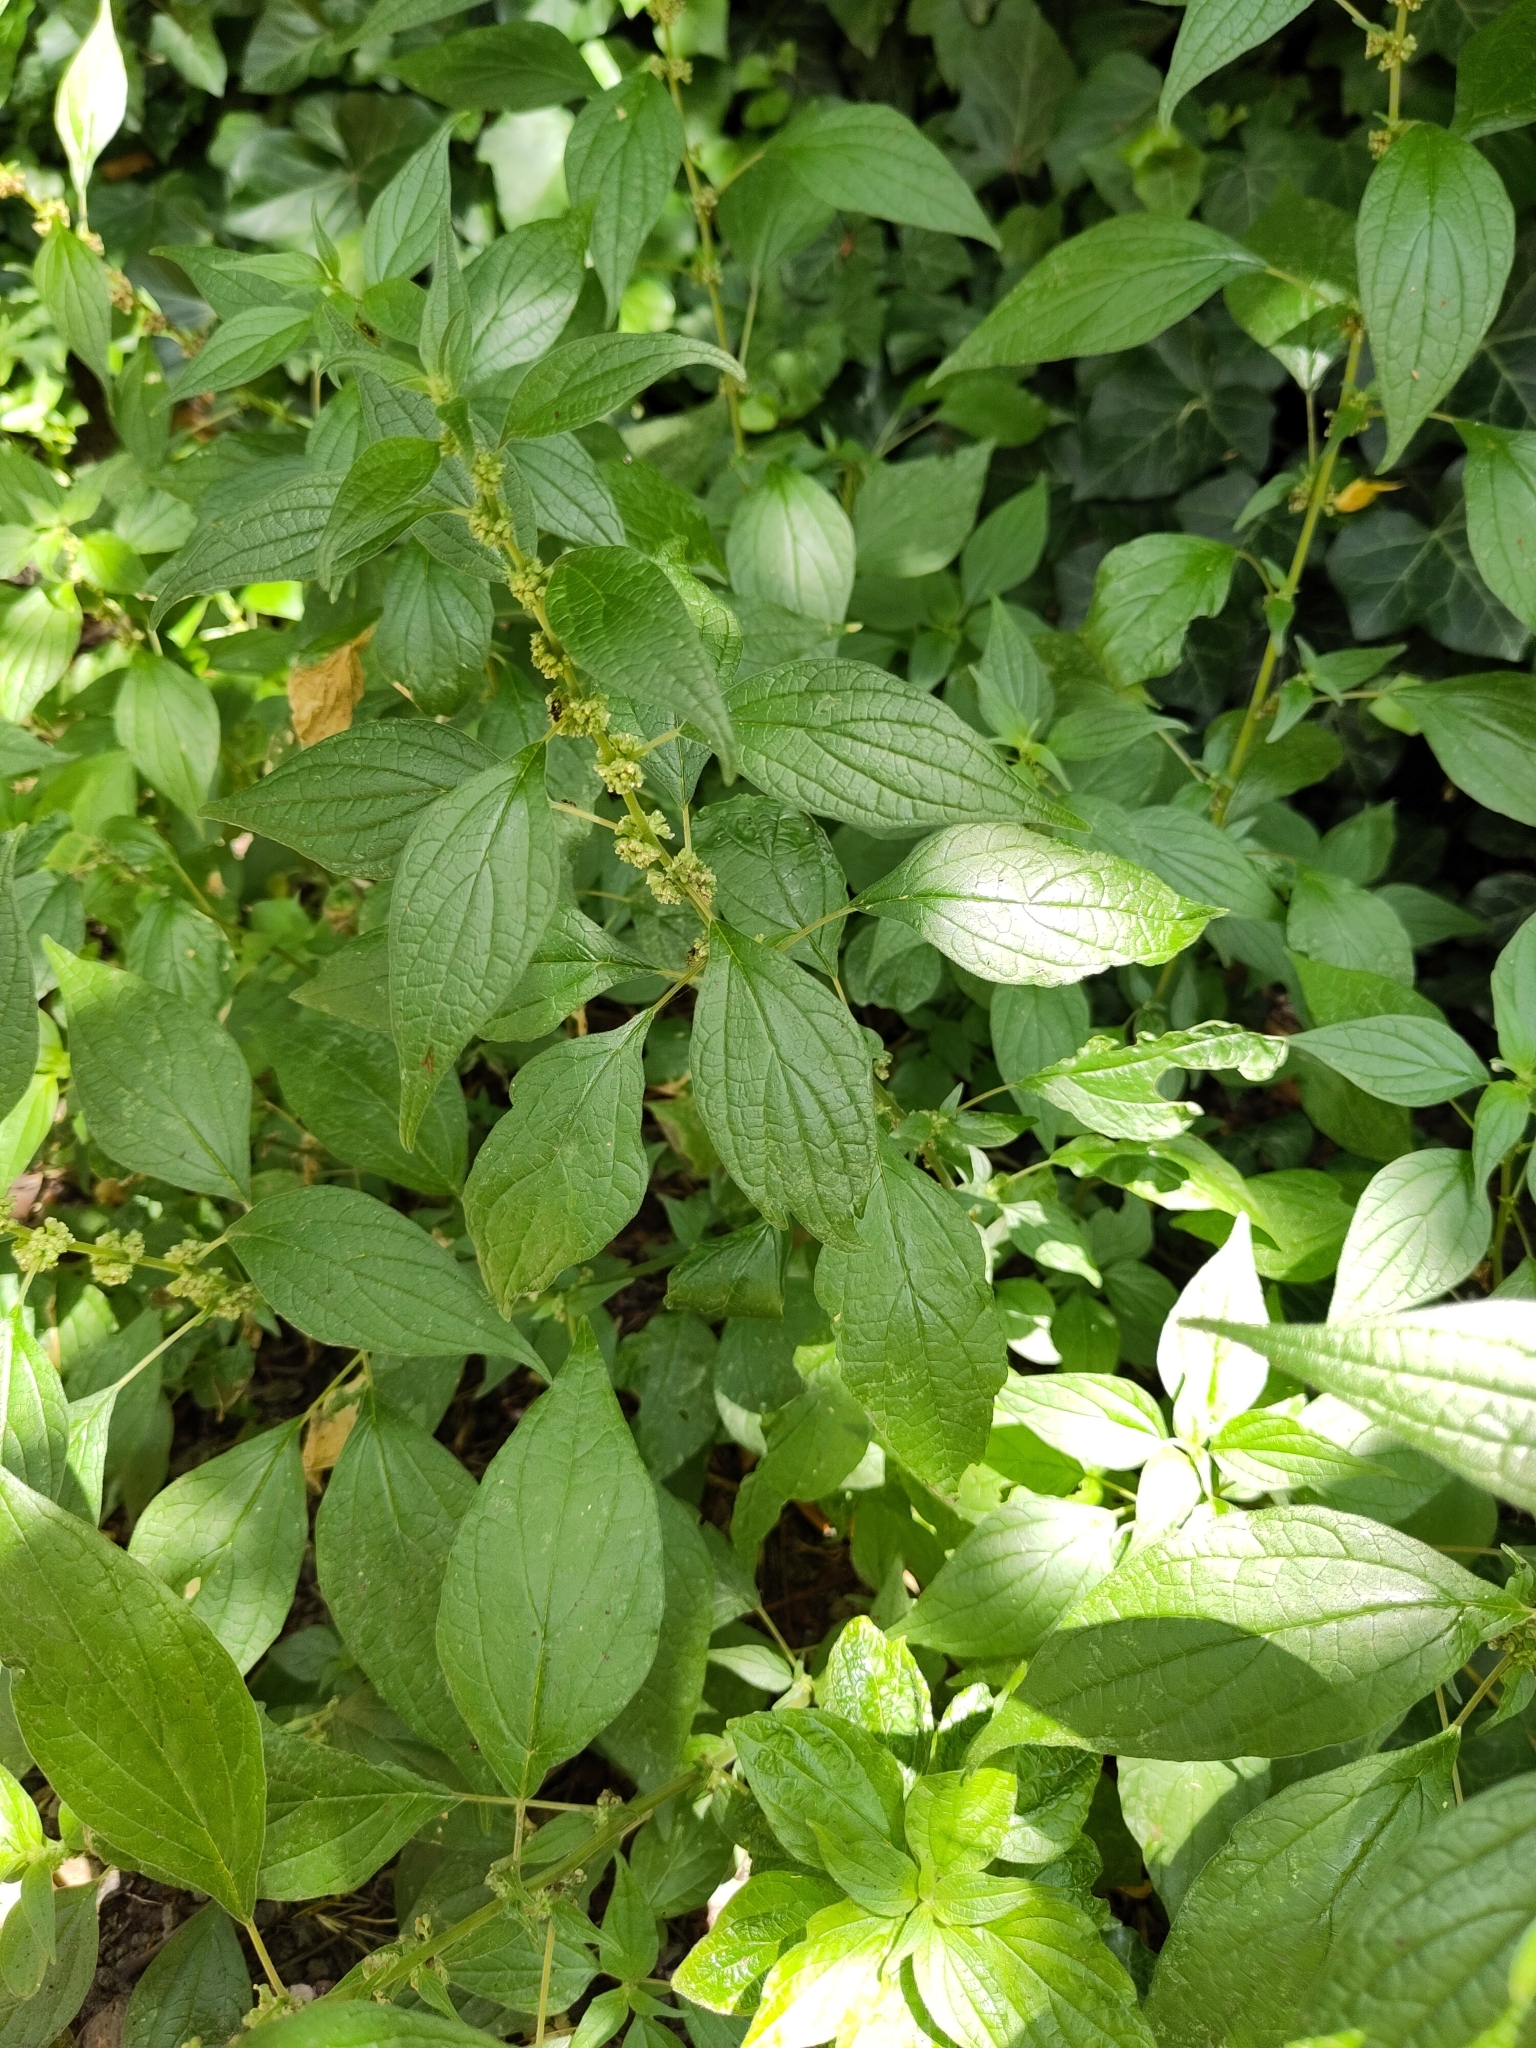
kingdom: Plantae
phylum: Tracheophyta
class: Magnoliopsida
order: Rosales
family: Urticaceae
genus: Parietaria
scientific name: Parietaria officinalis
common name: Eastern pellitory-of-the-wall
